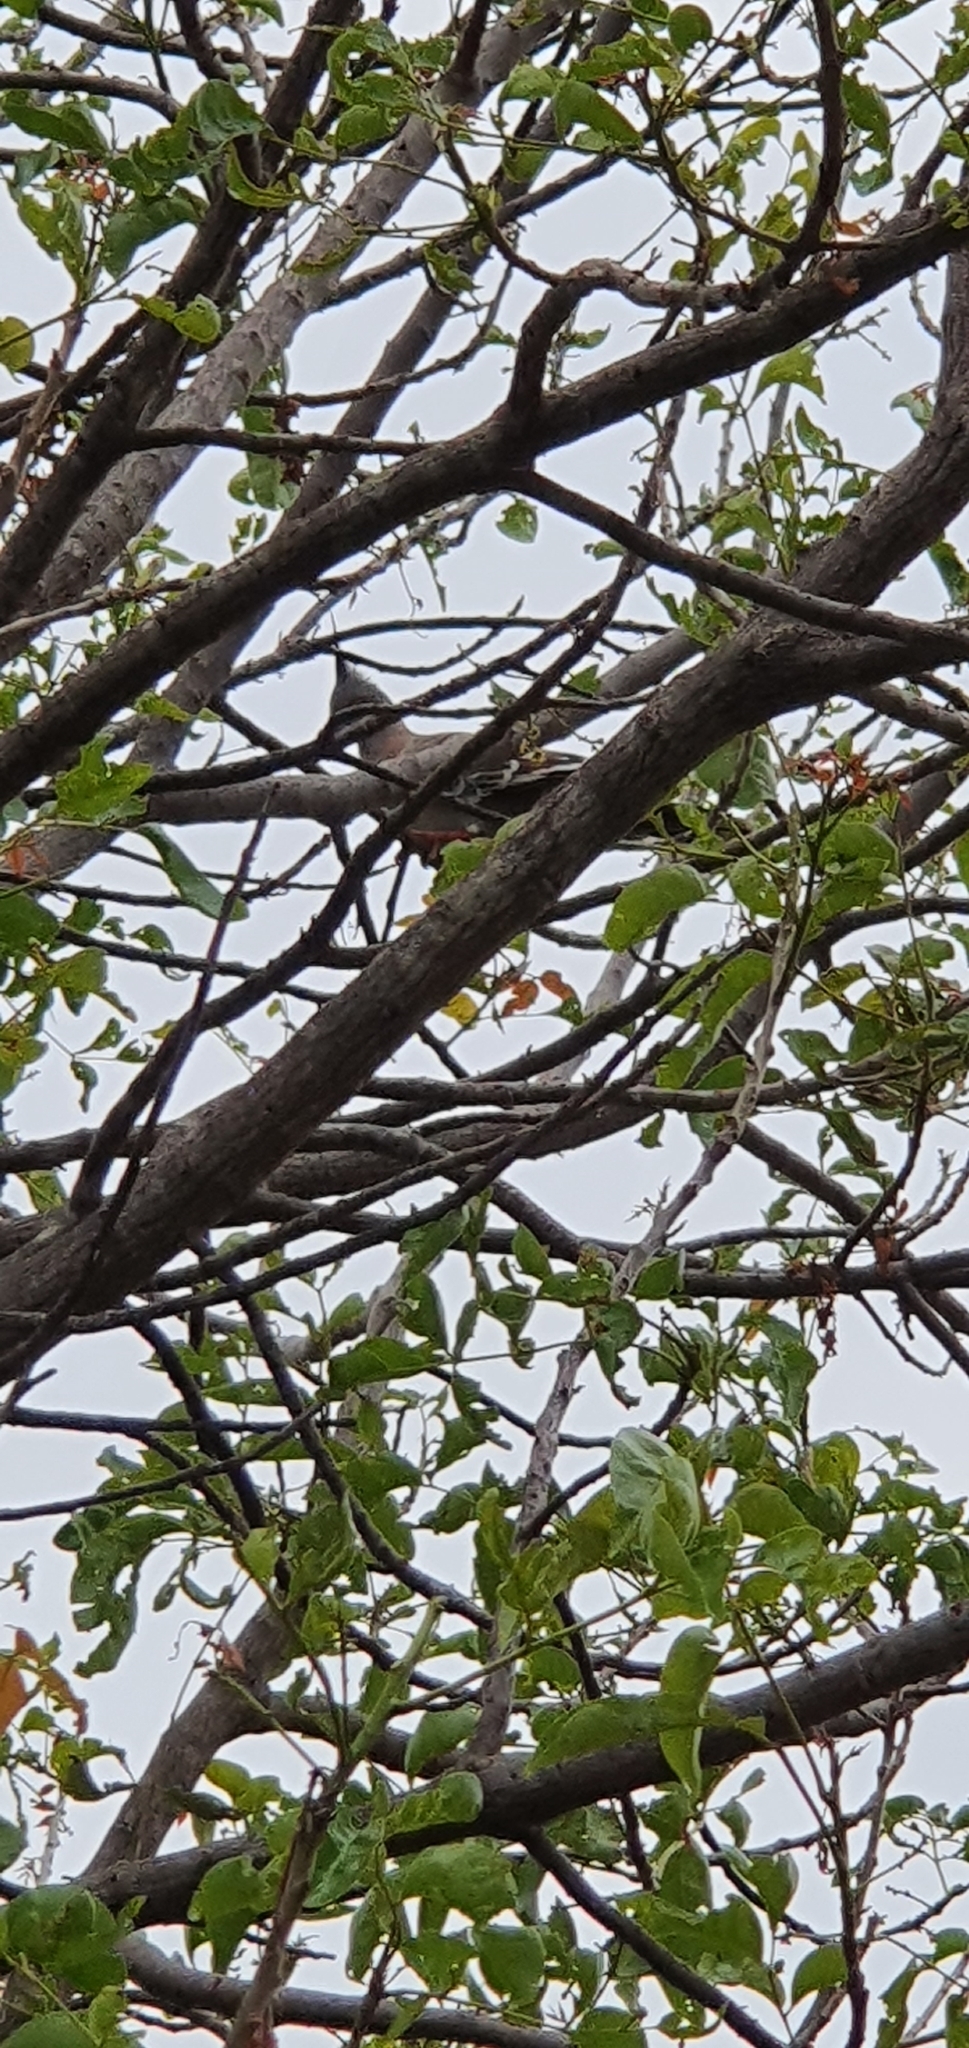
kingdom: Animalia
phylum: Chordata
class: Aves
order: Columbiformes
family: Columbidae
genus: Ocyphaps
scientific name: Ocyphaps lophotes
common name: Crested pigeon
